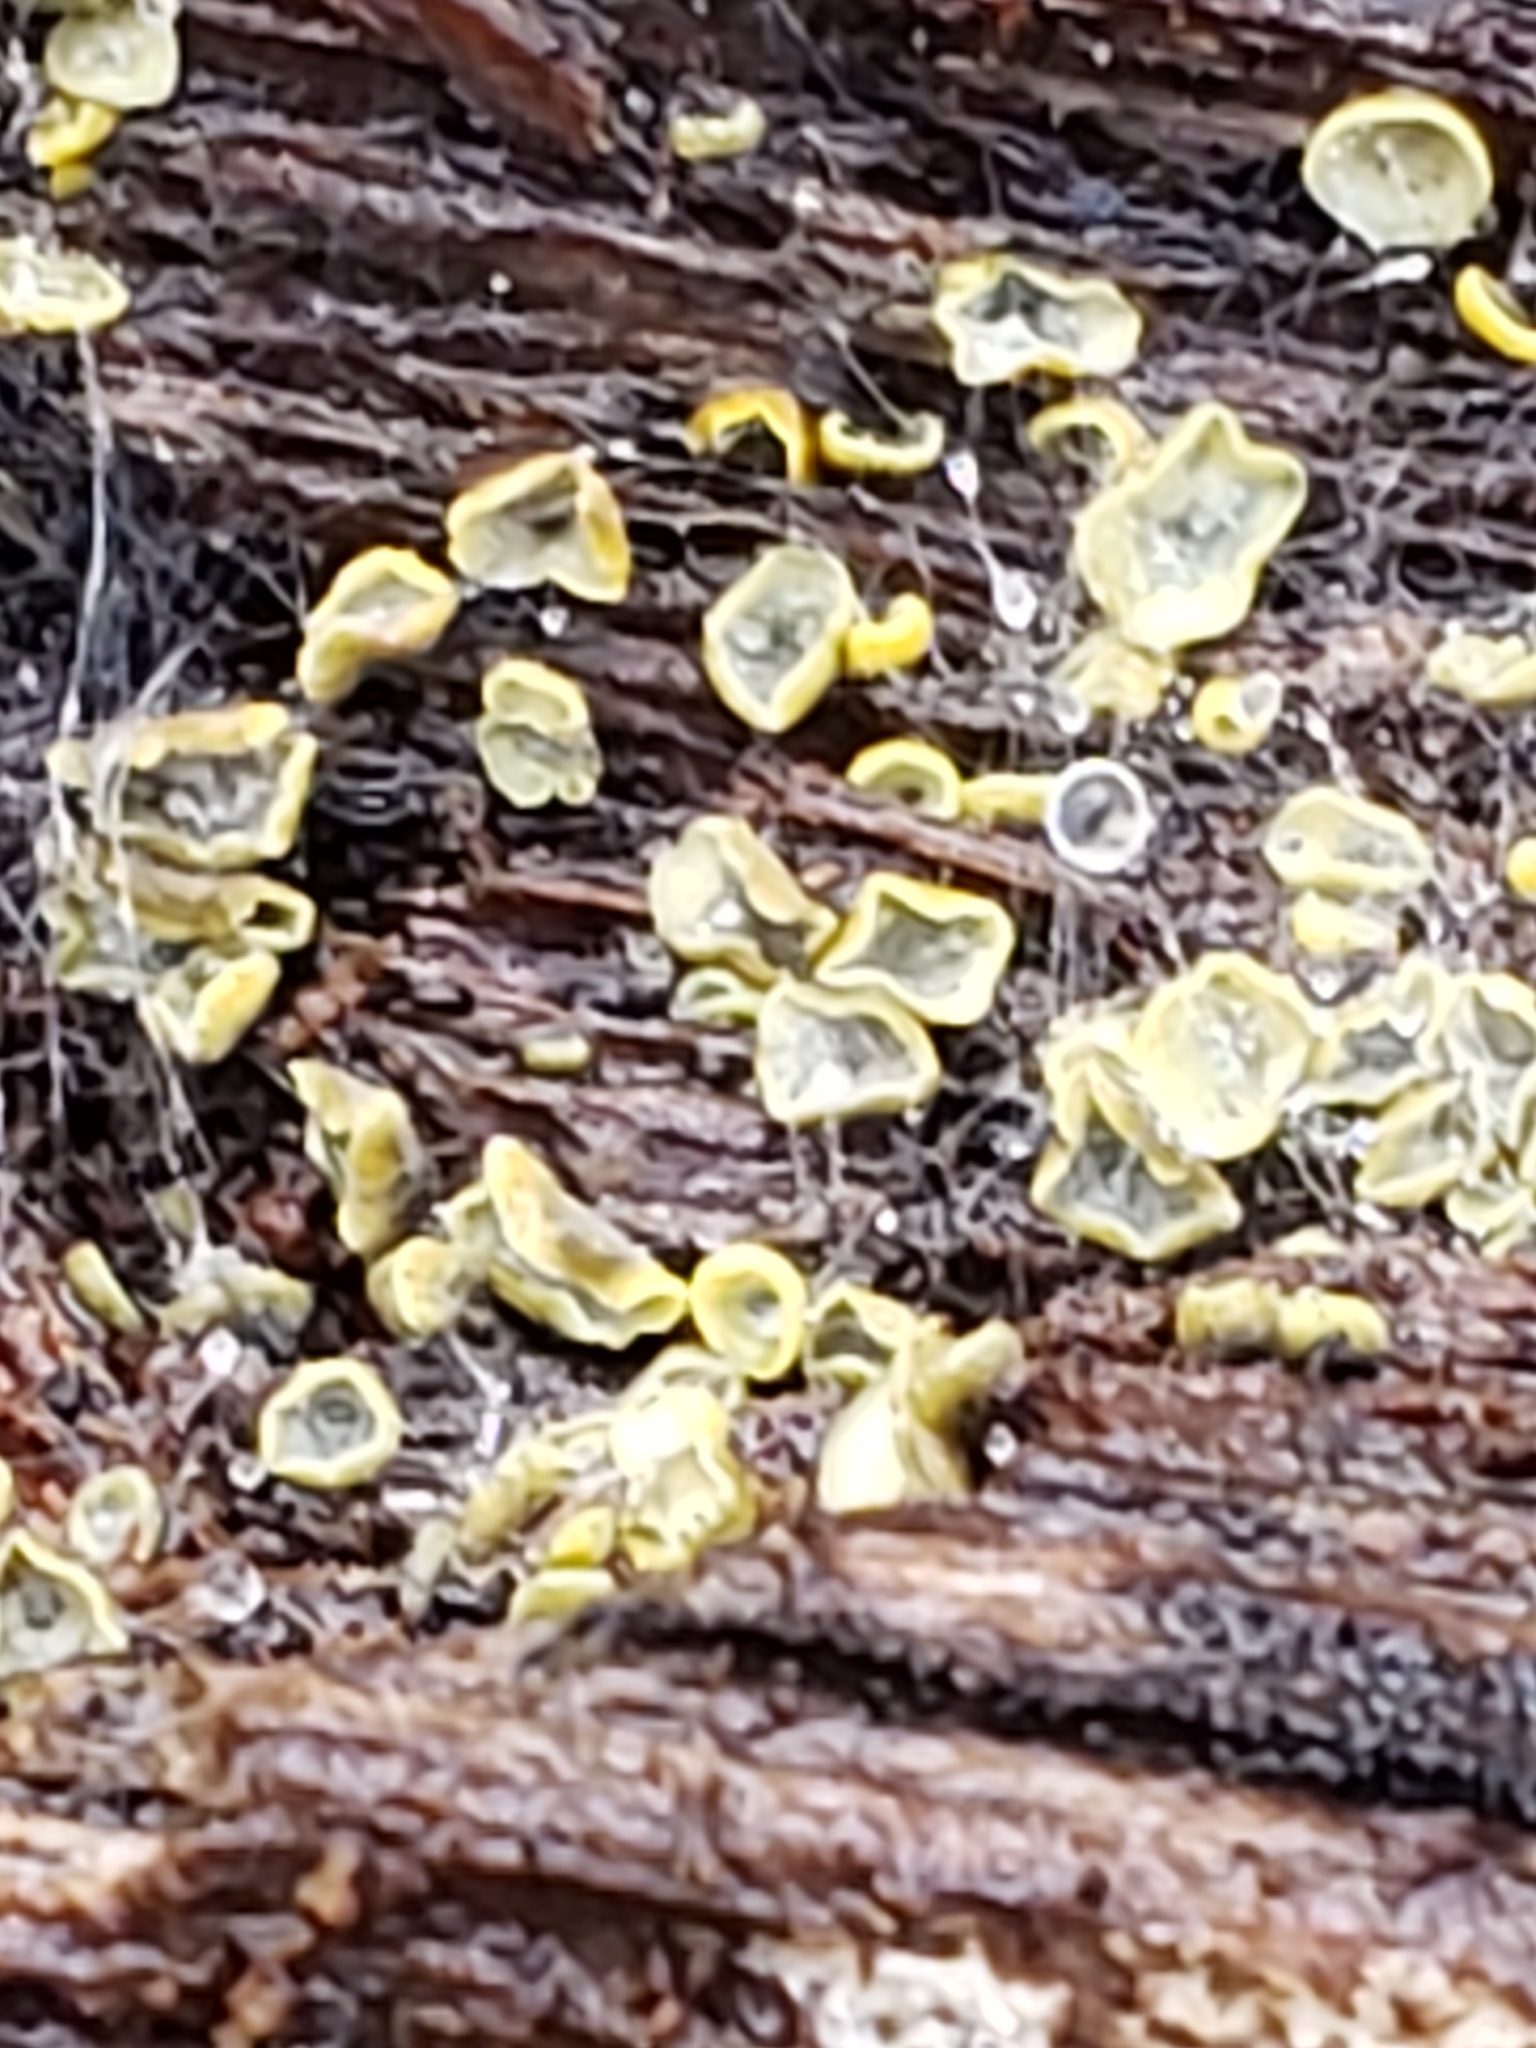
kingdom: Fungi
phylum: Ascomycota
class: Leotiomycetes
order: Helotiales
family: Chlorospleniaceae
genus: Chlorosplenium
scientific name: Chlorosplenium chlora
